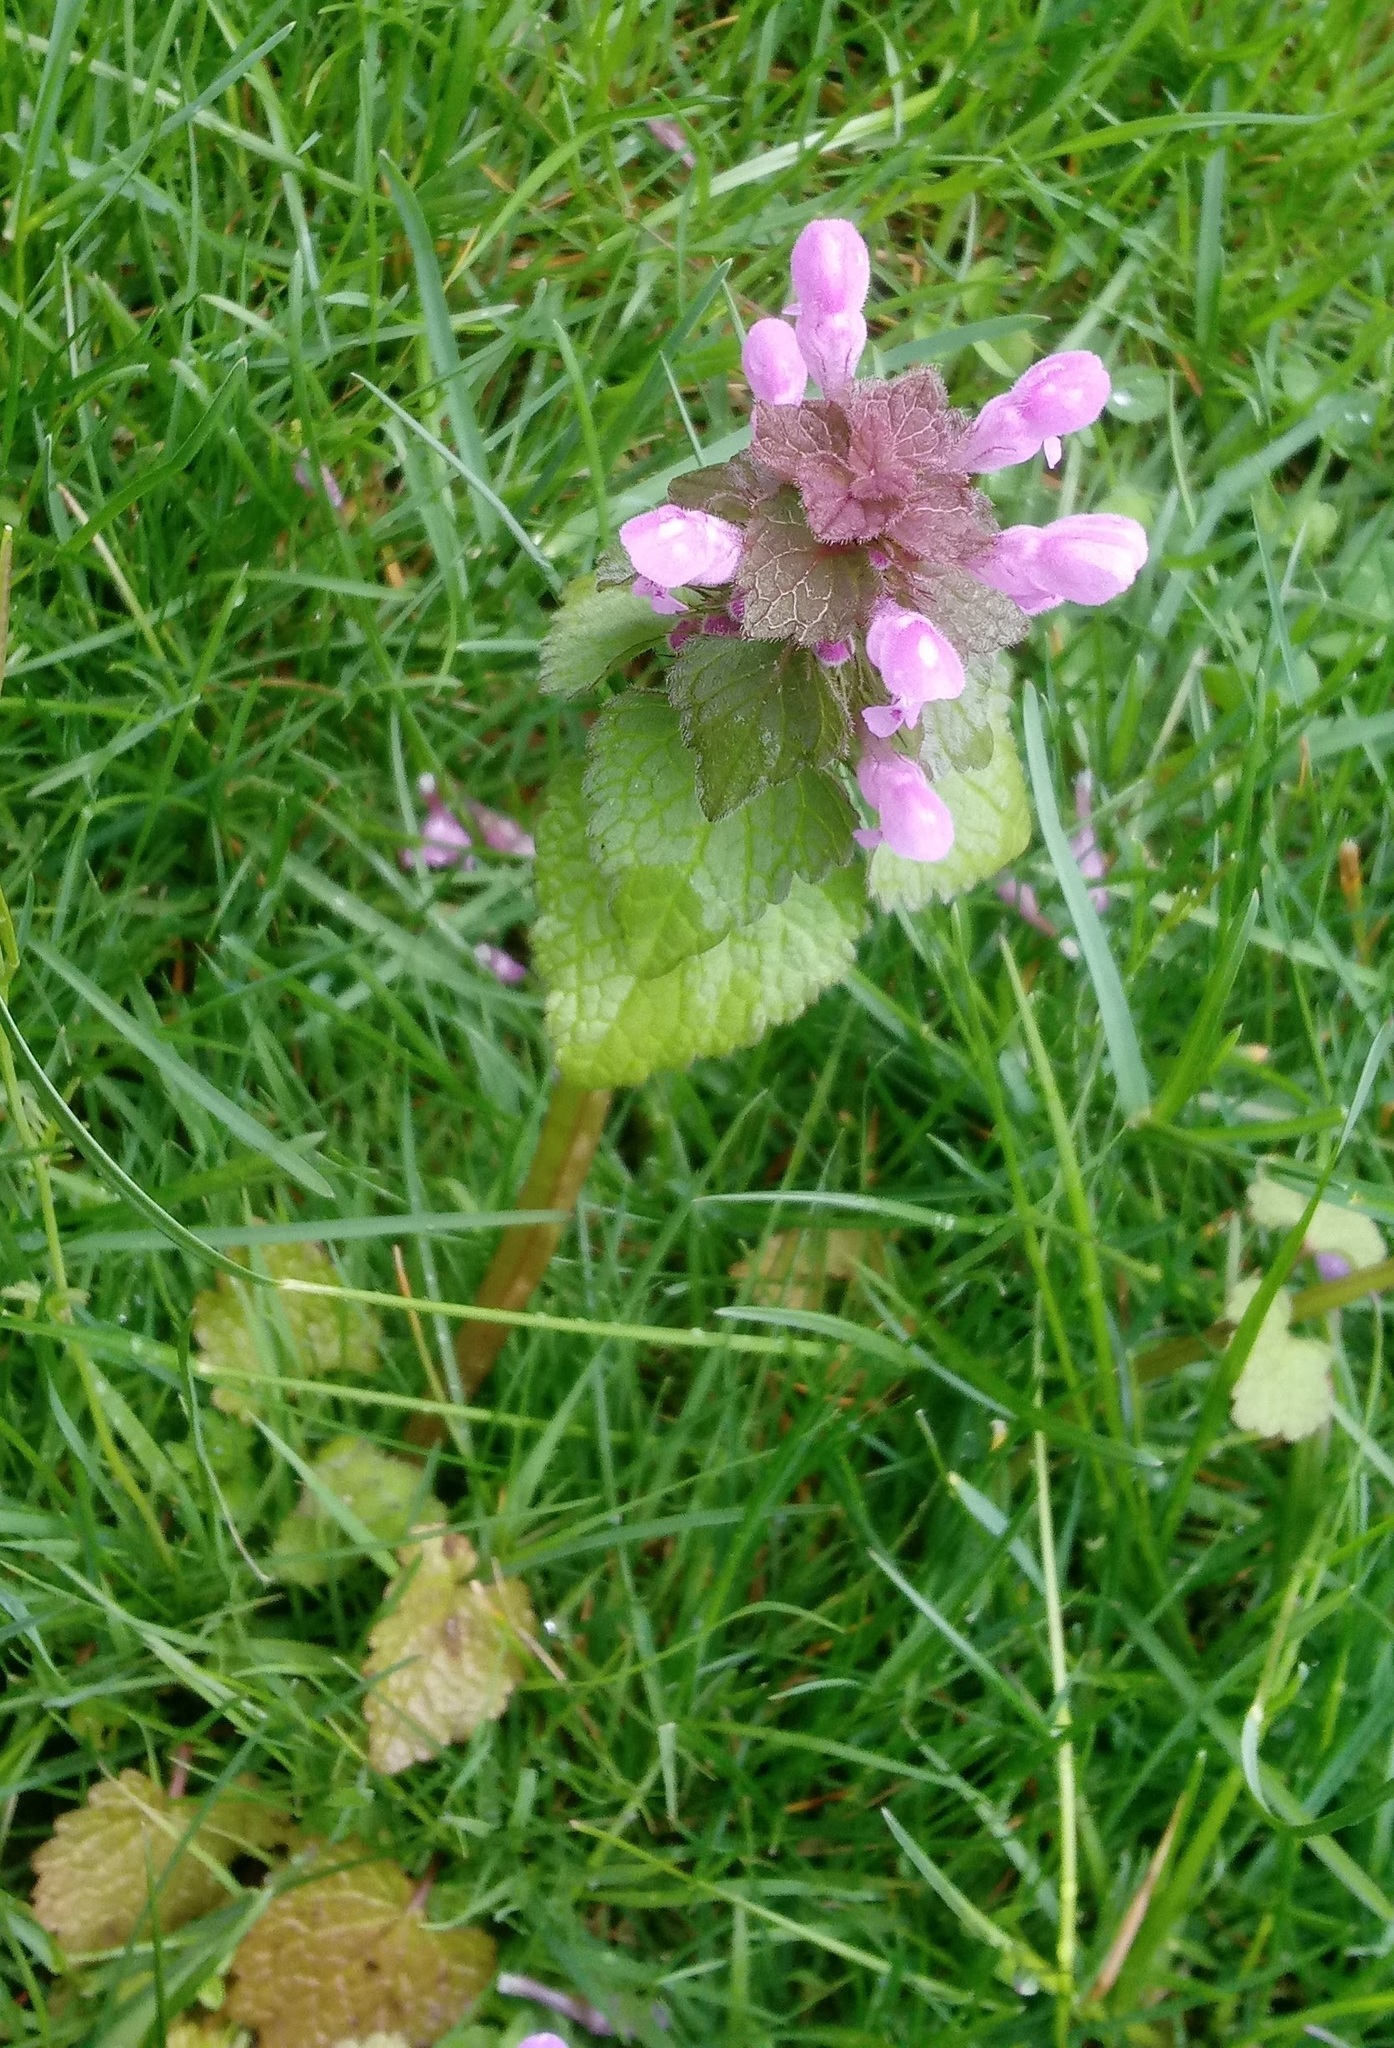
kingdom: Plantae
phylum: Tracheophyta
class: Magnoliopsida
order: Lamiales
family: Lamiaceae
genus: Lamium
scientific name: Lamium purpureum
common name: Red dead-nettle
